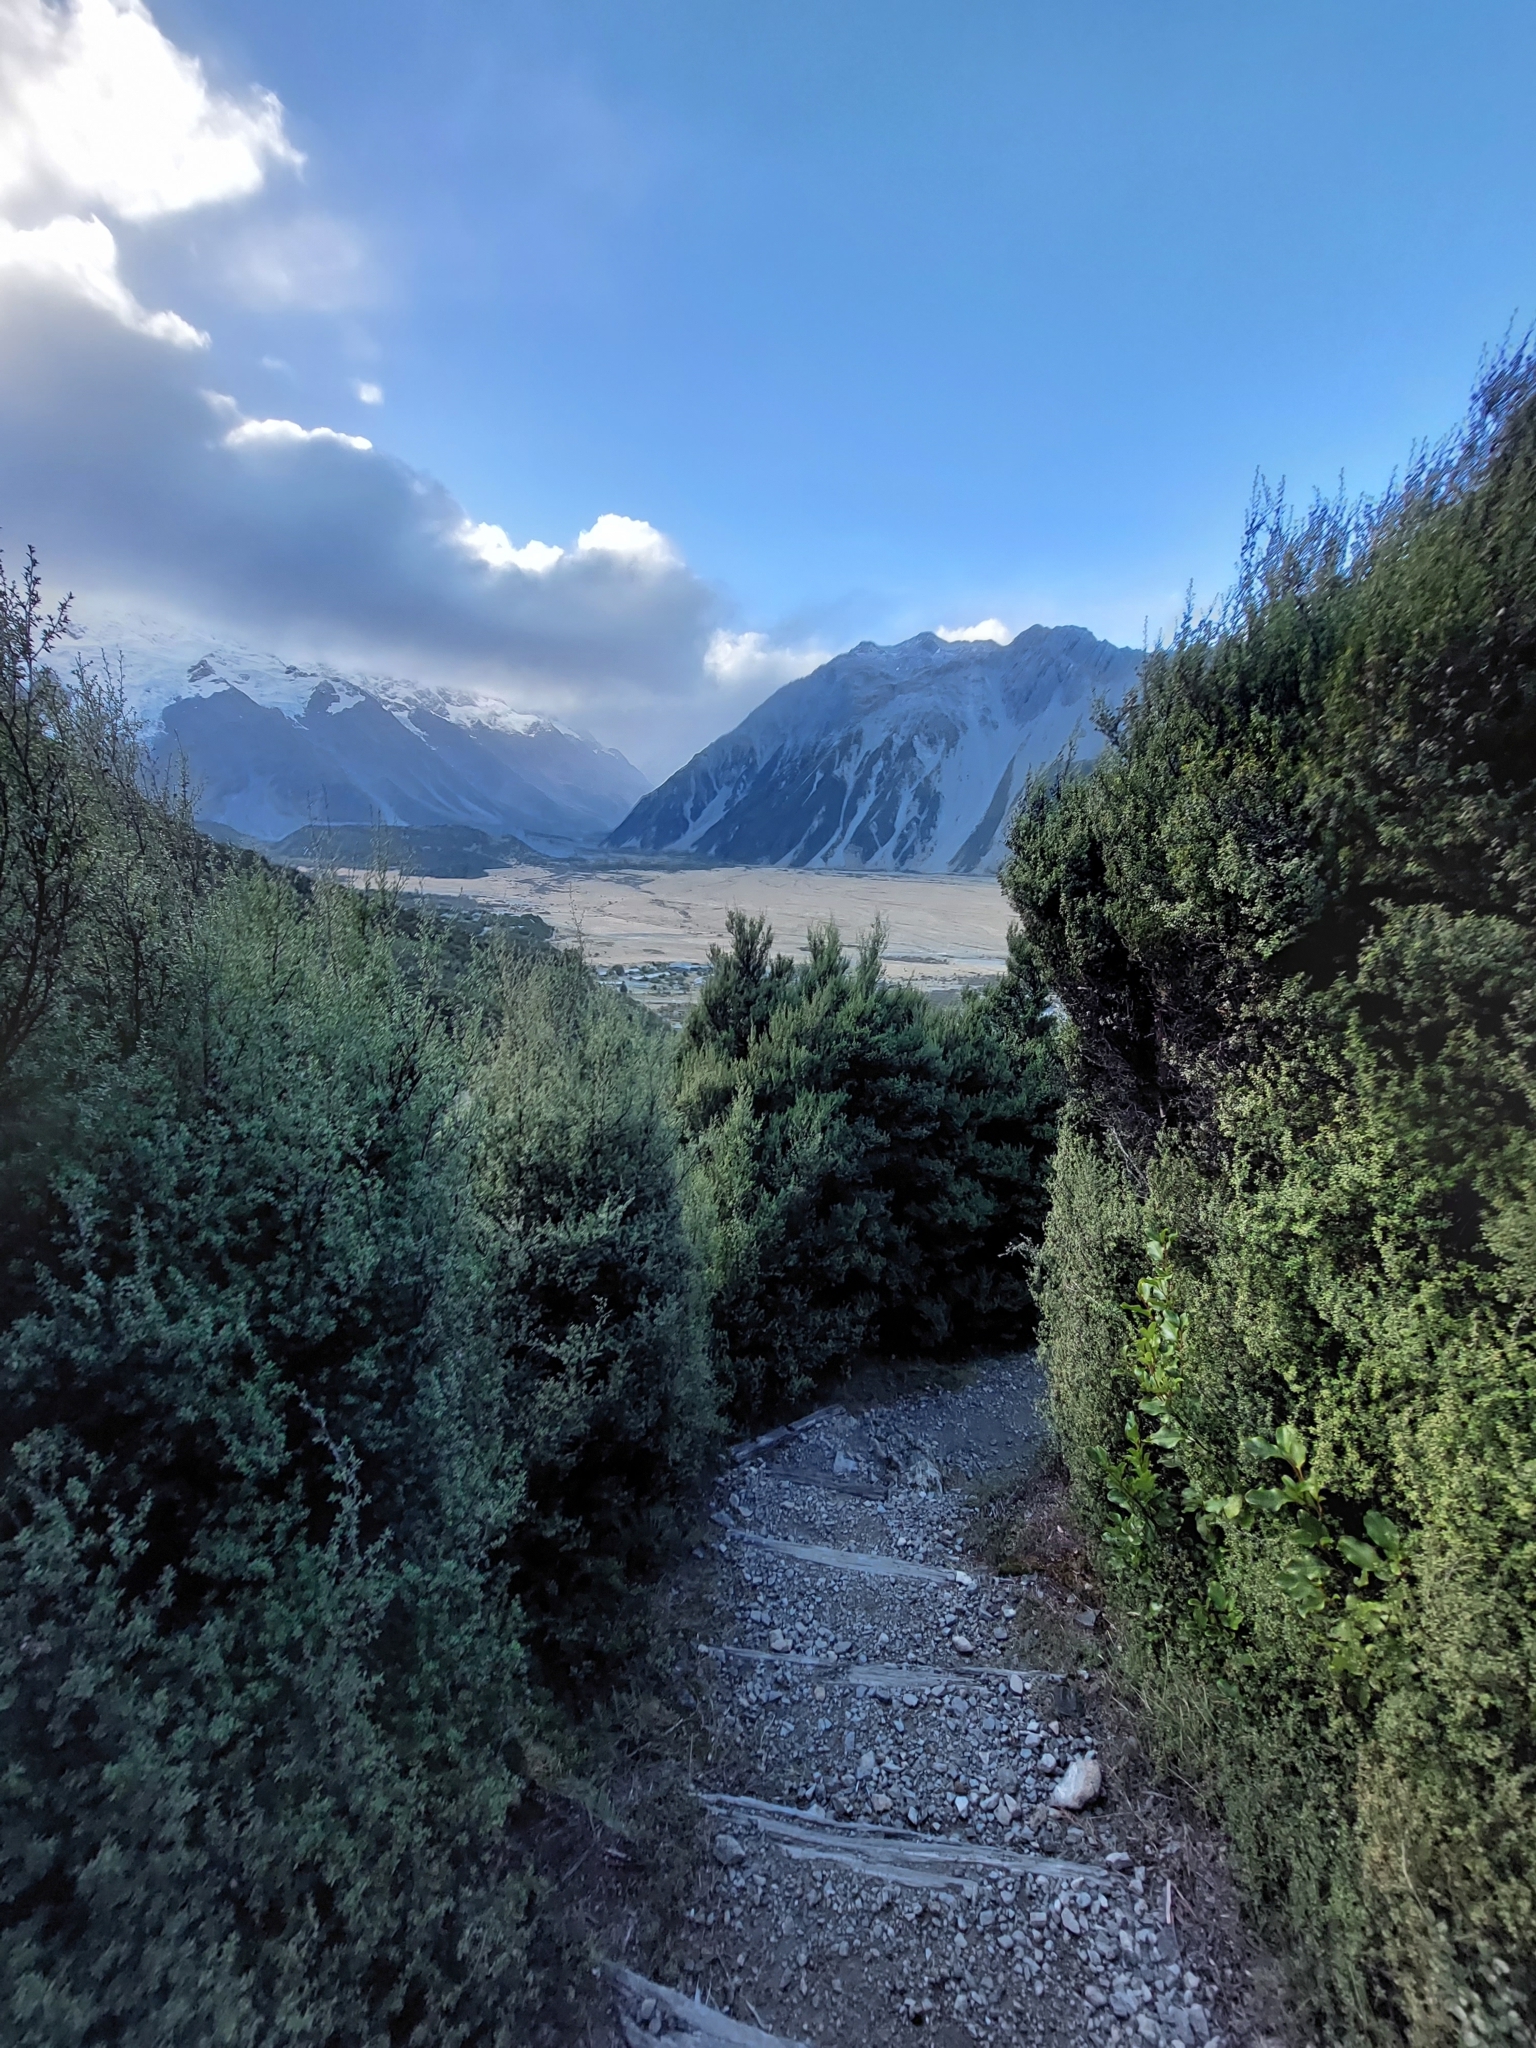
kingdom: Plantae
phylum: Tracheophyta
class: Magnoliopsida
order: Myrtales
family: Myrtaceae
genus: Leptospermum
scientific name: Leptospermum scoparium
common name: Broom tea-tree
